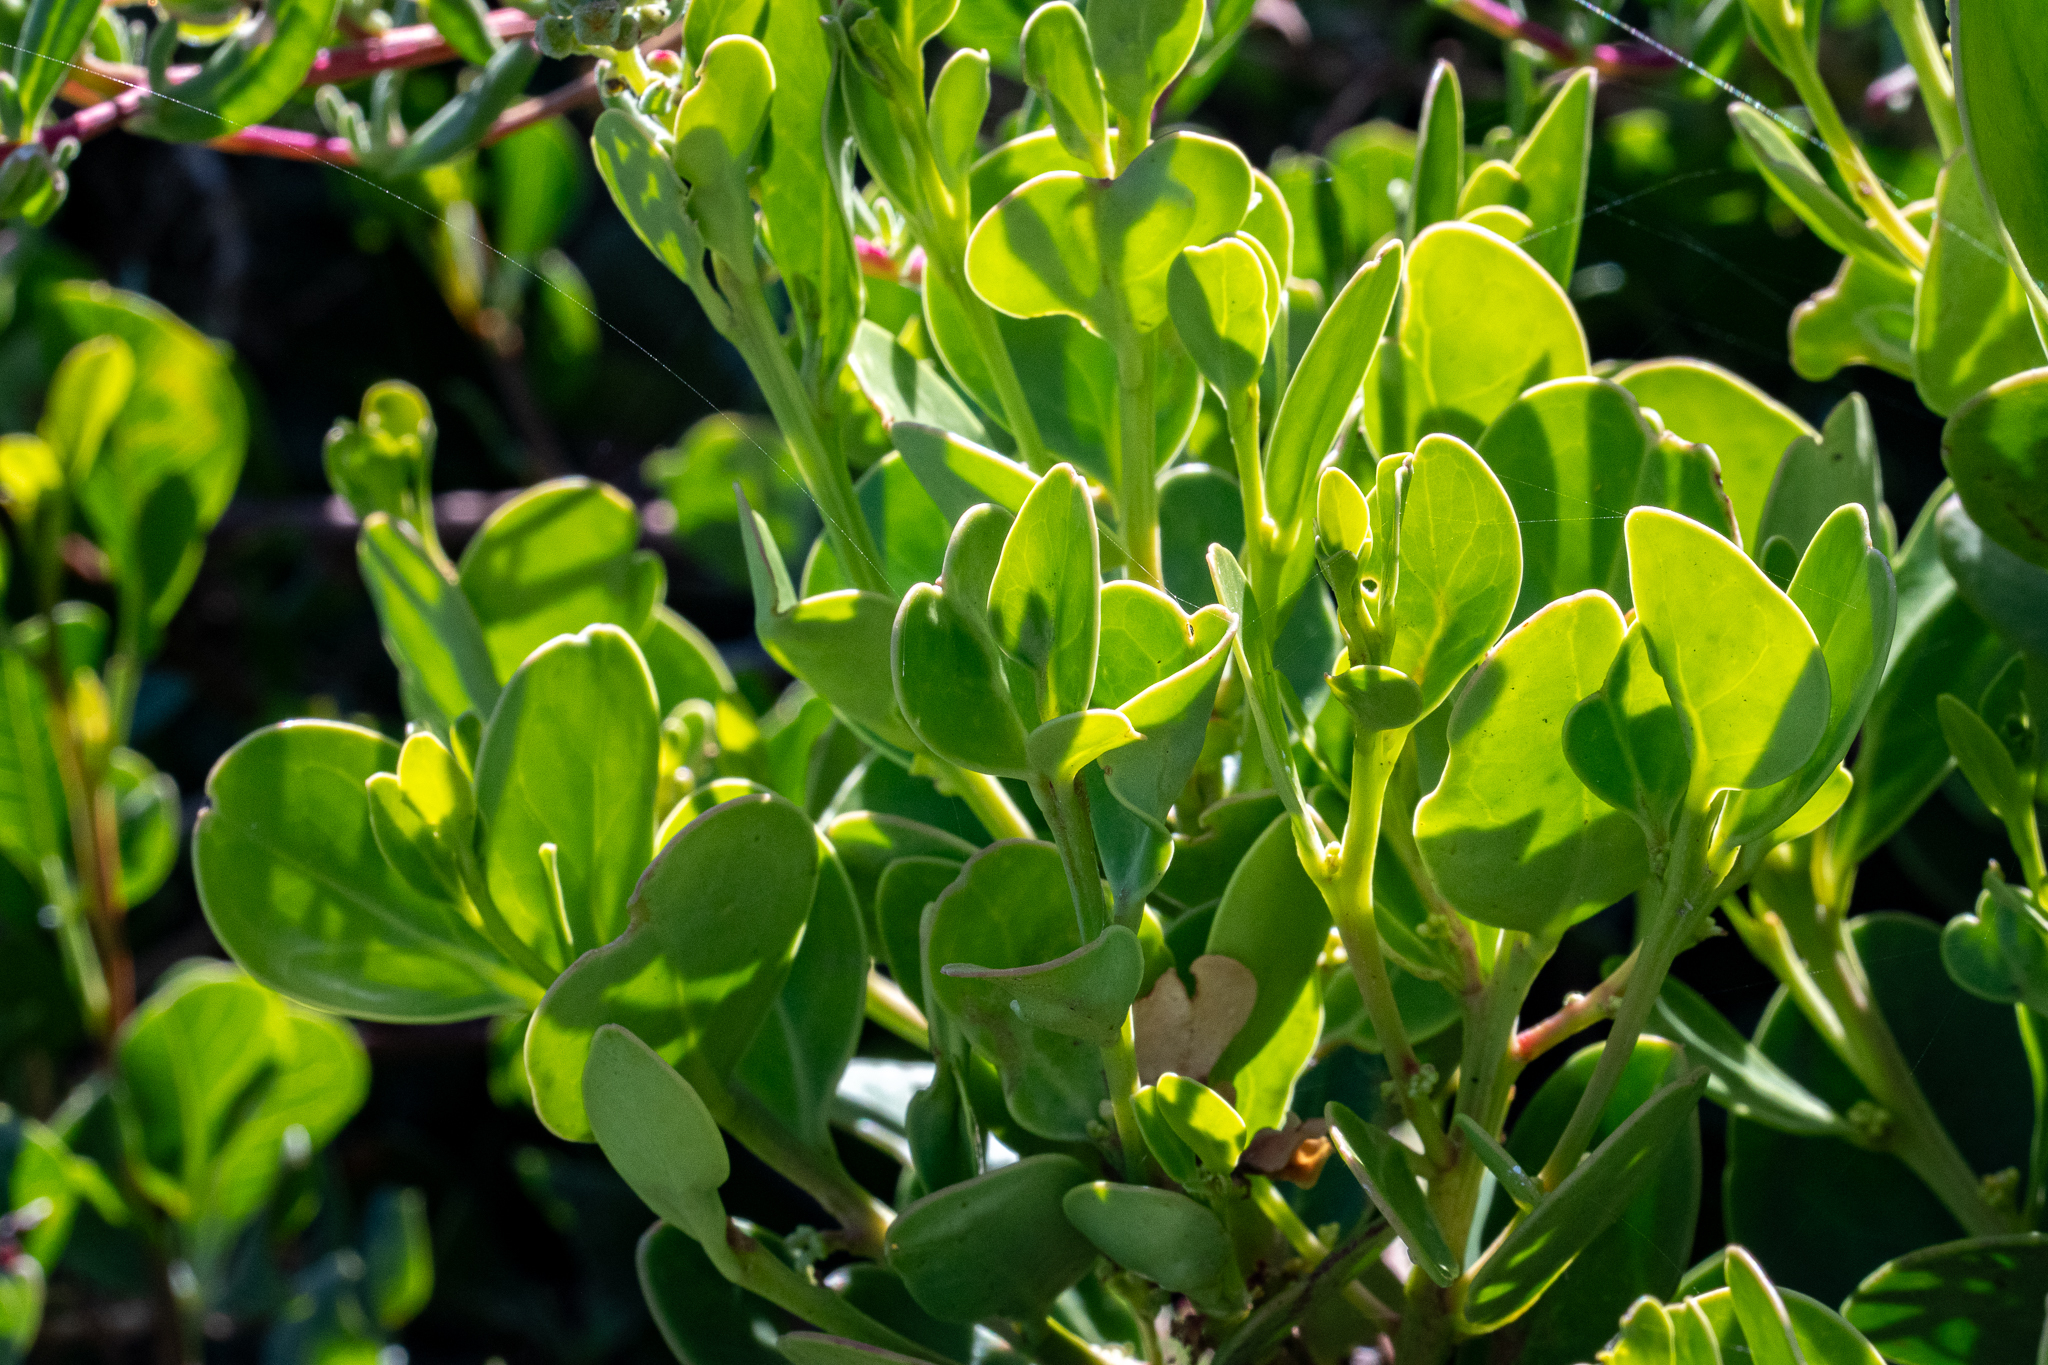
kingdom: Plantae
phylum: Tracheophyta
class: Magnoliopsida
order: Celastrales
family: Celastraceae
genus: Pterocelastrus
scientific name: Pterocelastrus tricuspidatus
